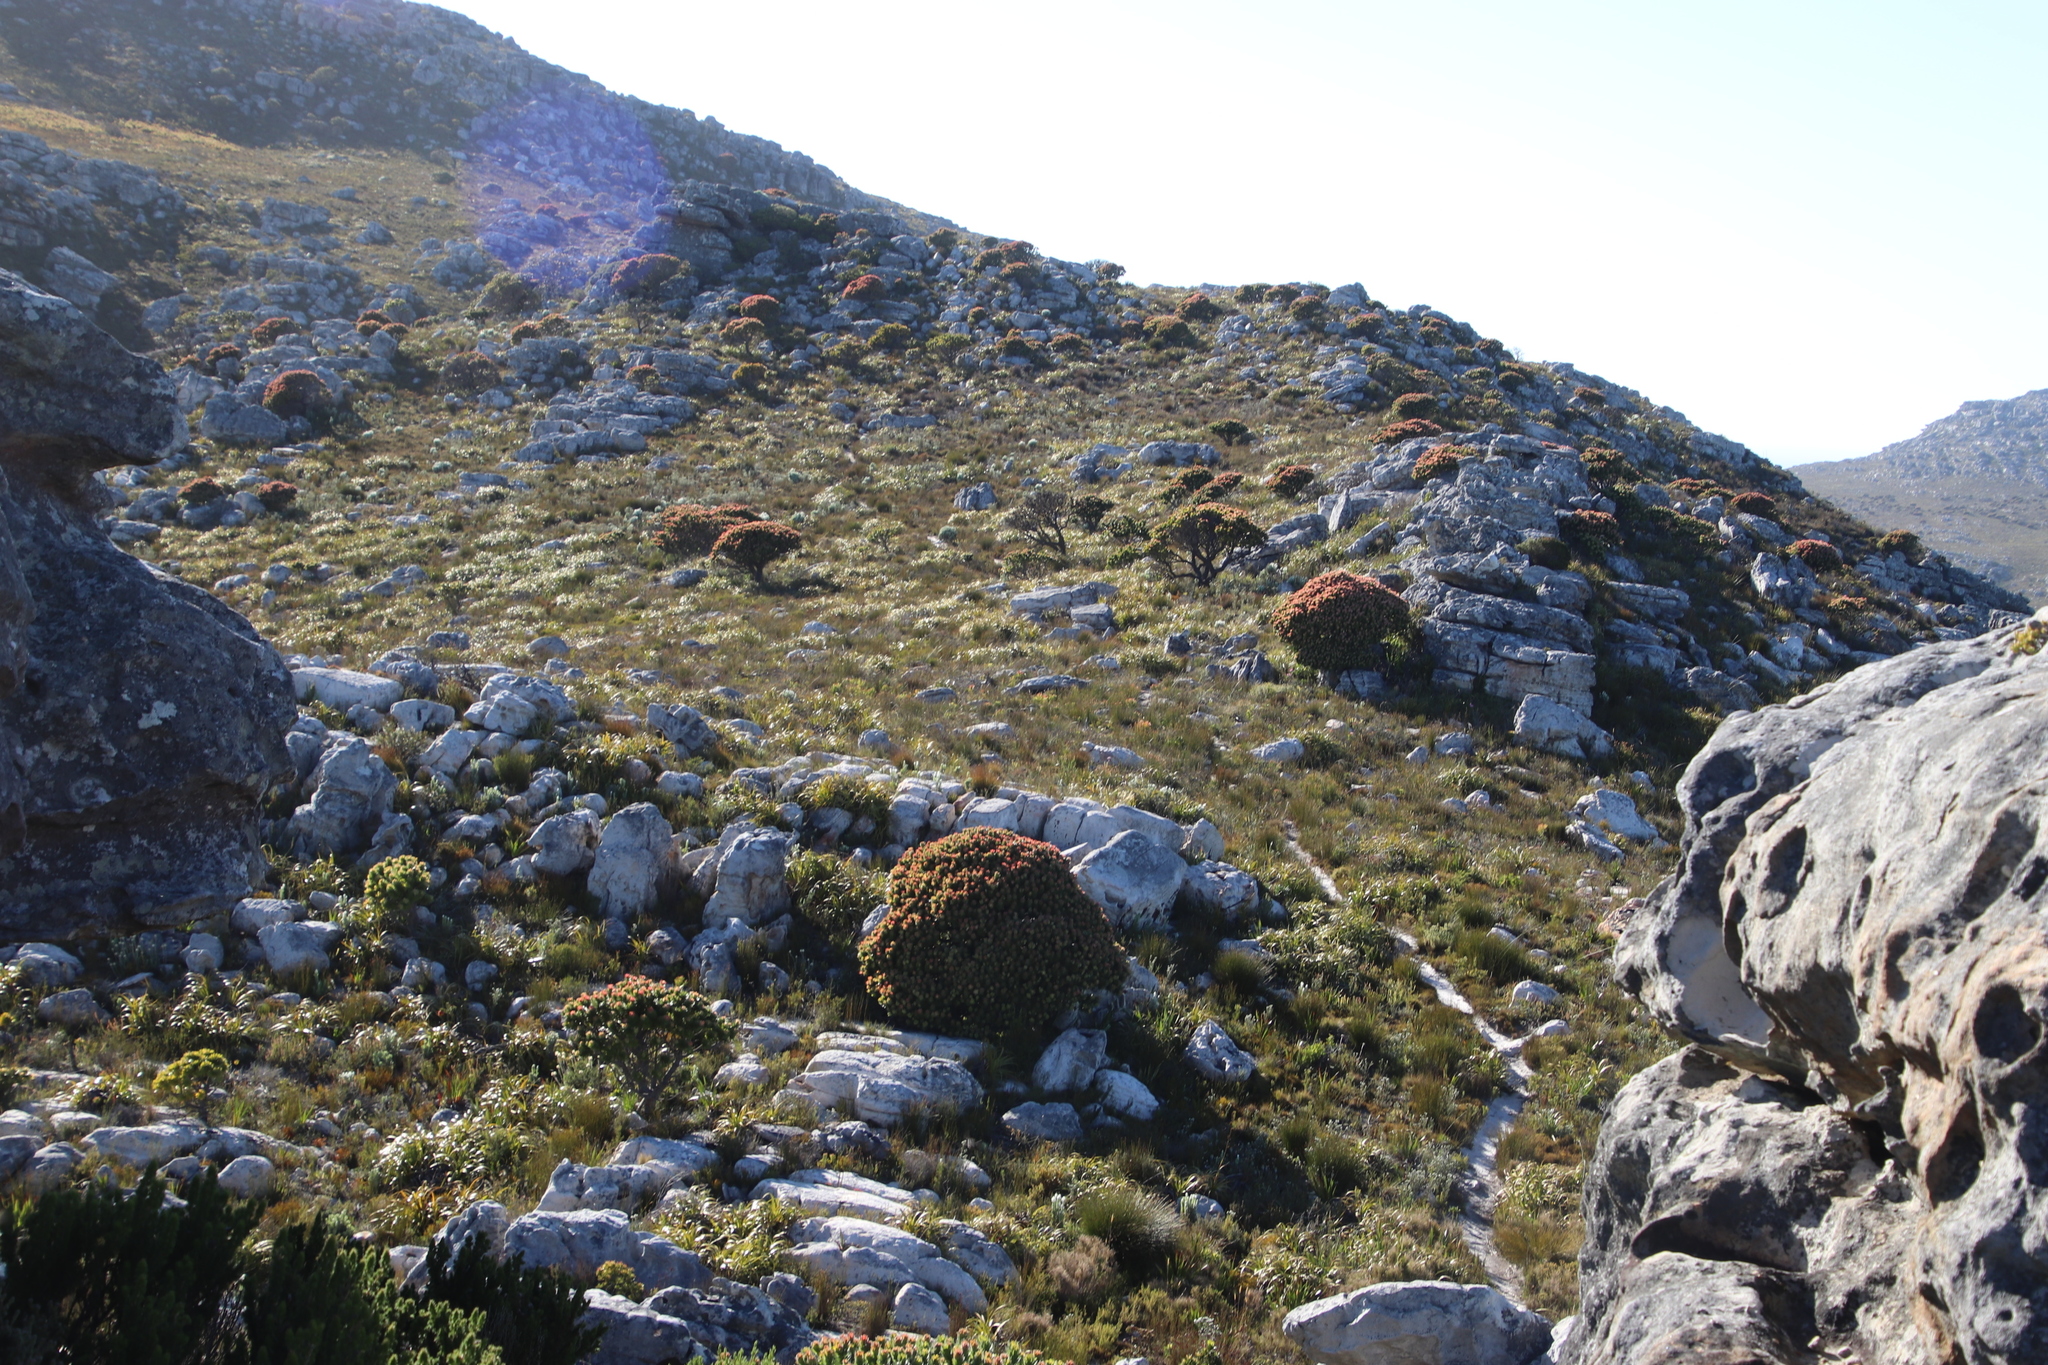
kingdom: Plantae
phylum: Tracheophyta
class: Magnoliopsida
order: Proteales
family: Proteaceae
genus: Mimetes
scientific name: Mimetes fimbriifolius
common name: Fringed bottlebrush
